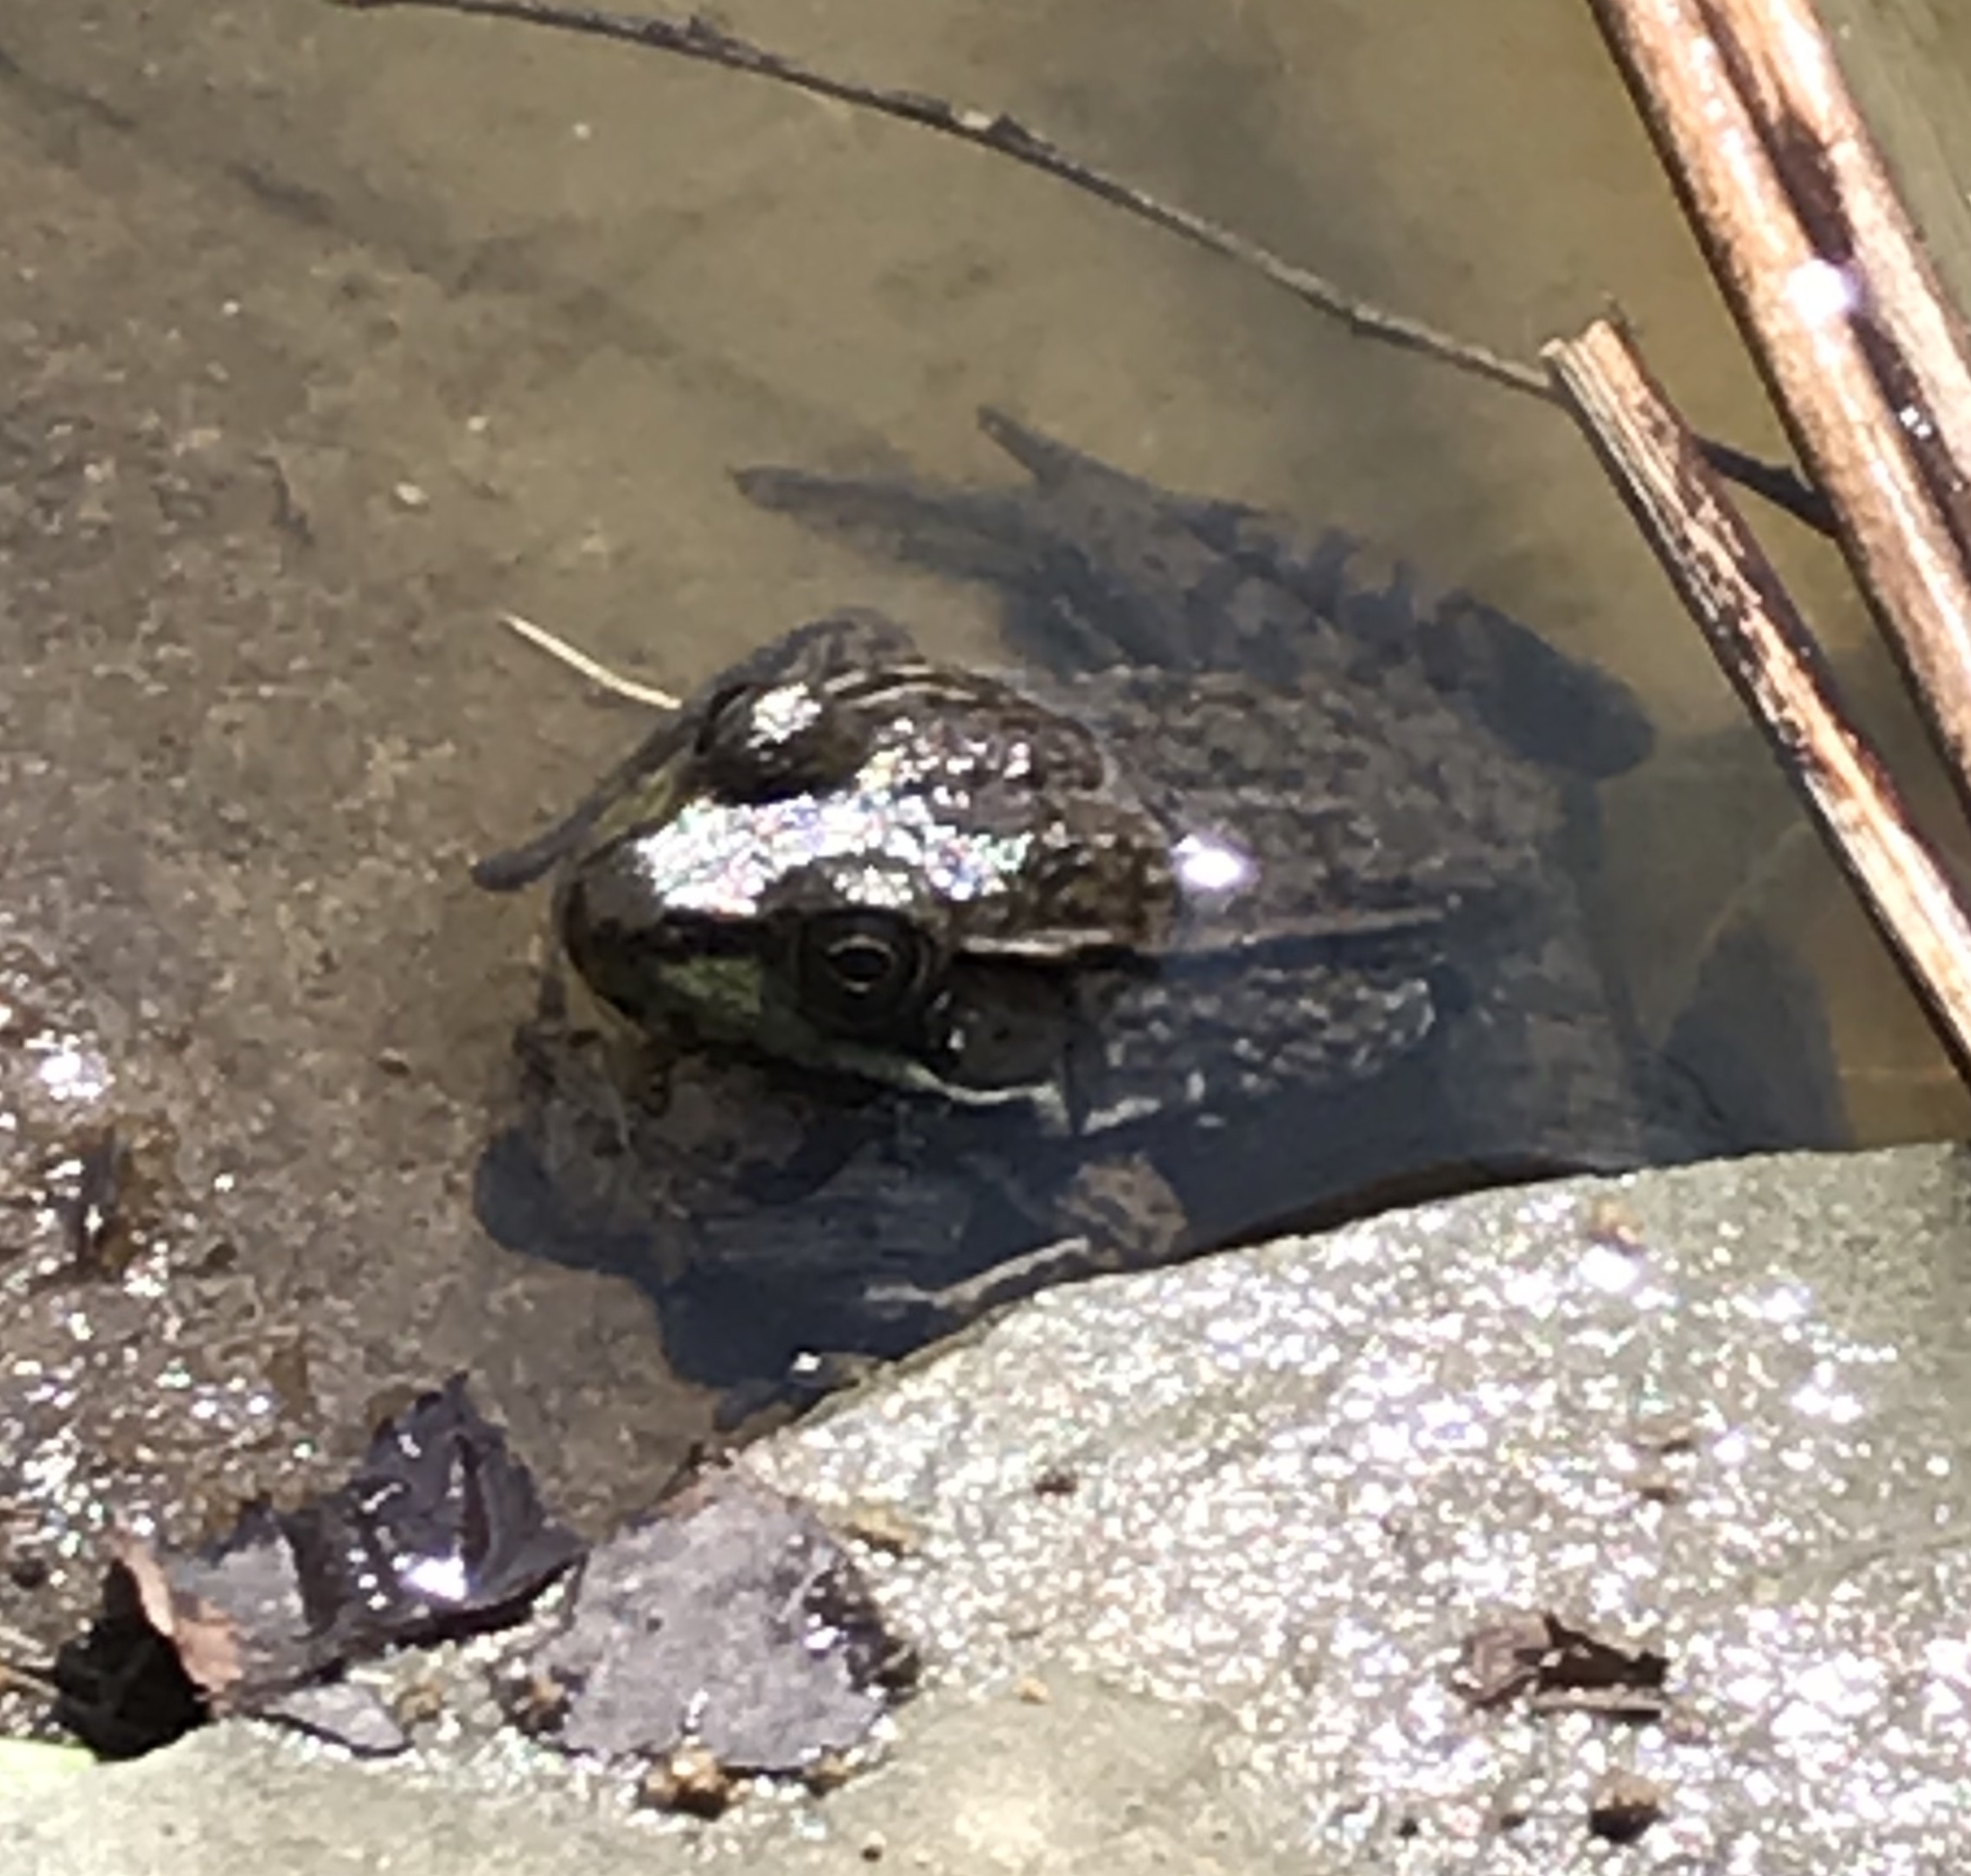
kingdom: Animalia
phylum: Chordata
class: Amphibia
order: Anura
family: Ranidae
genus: Lithobates
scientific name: Lithobates clamitans
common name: Green frog
